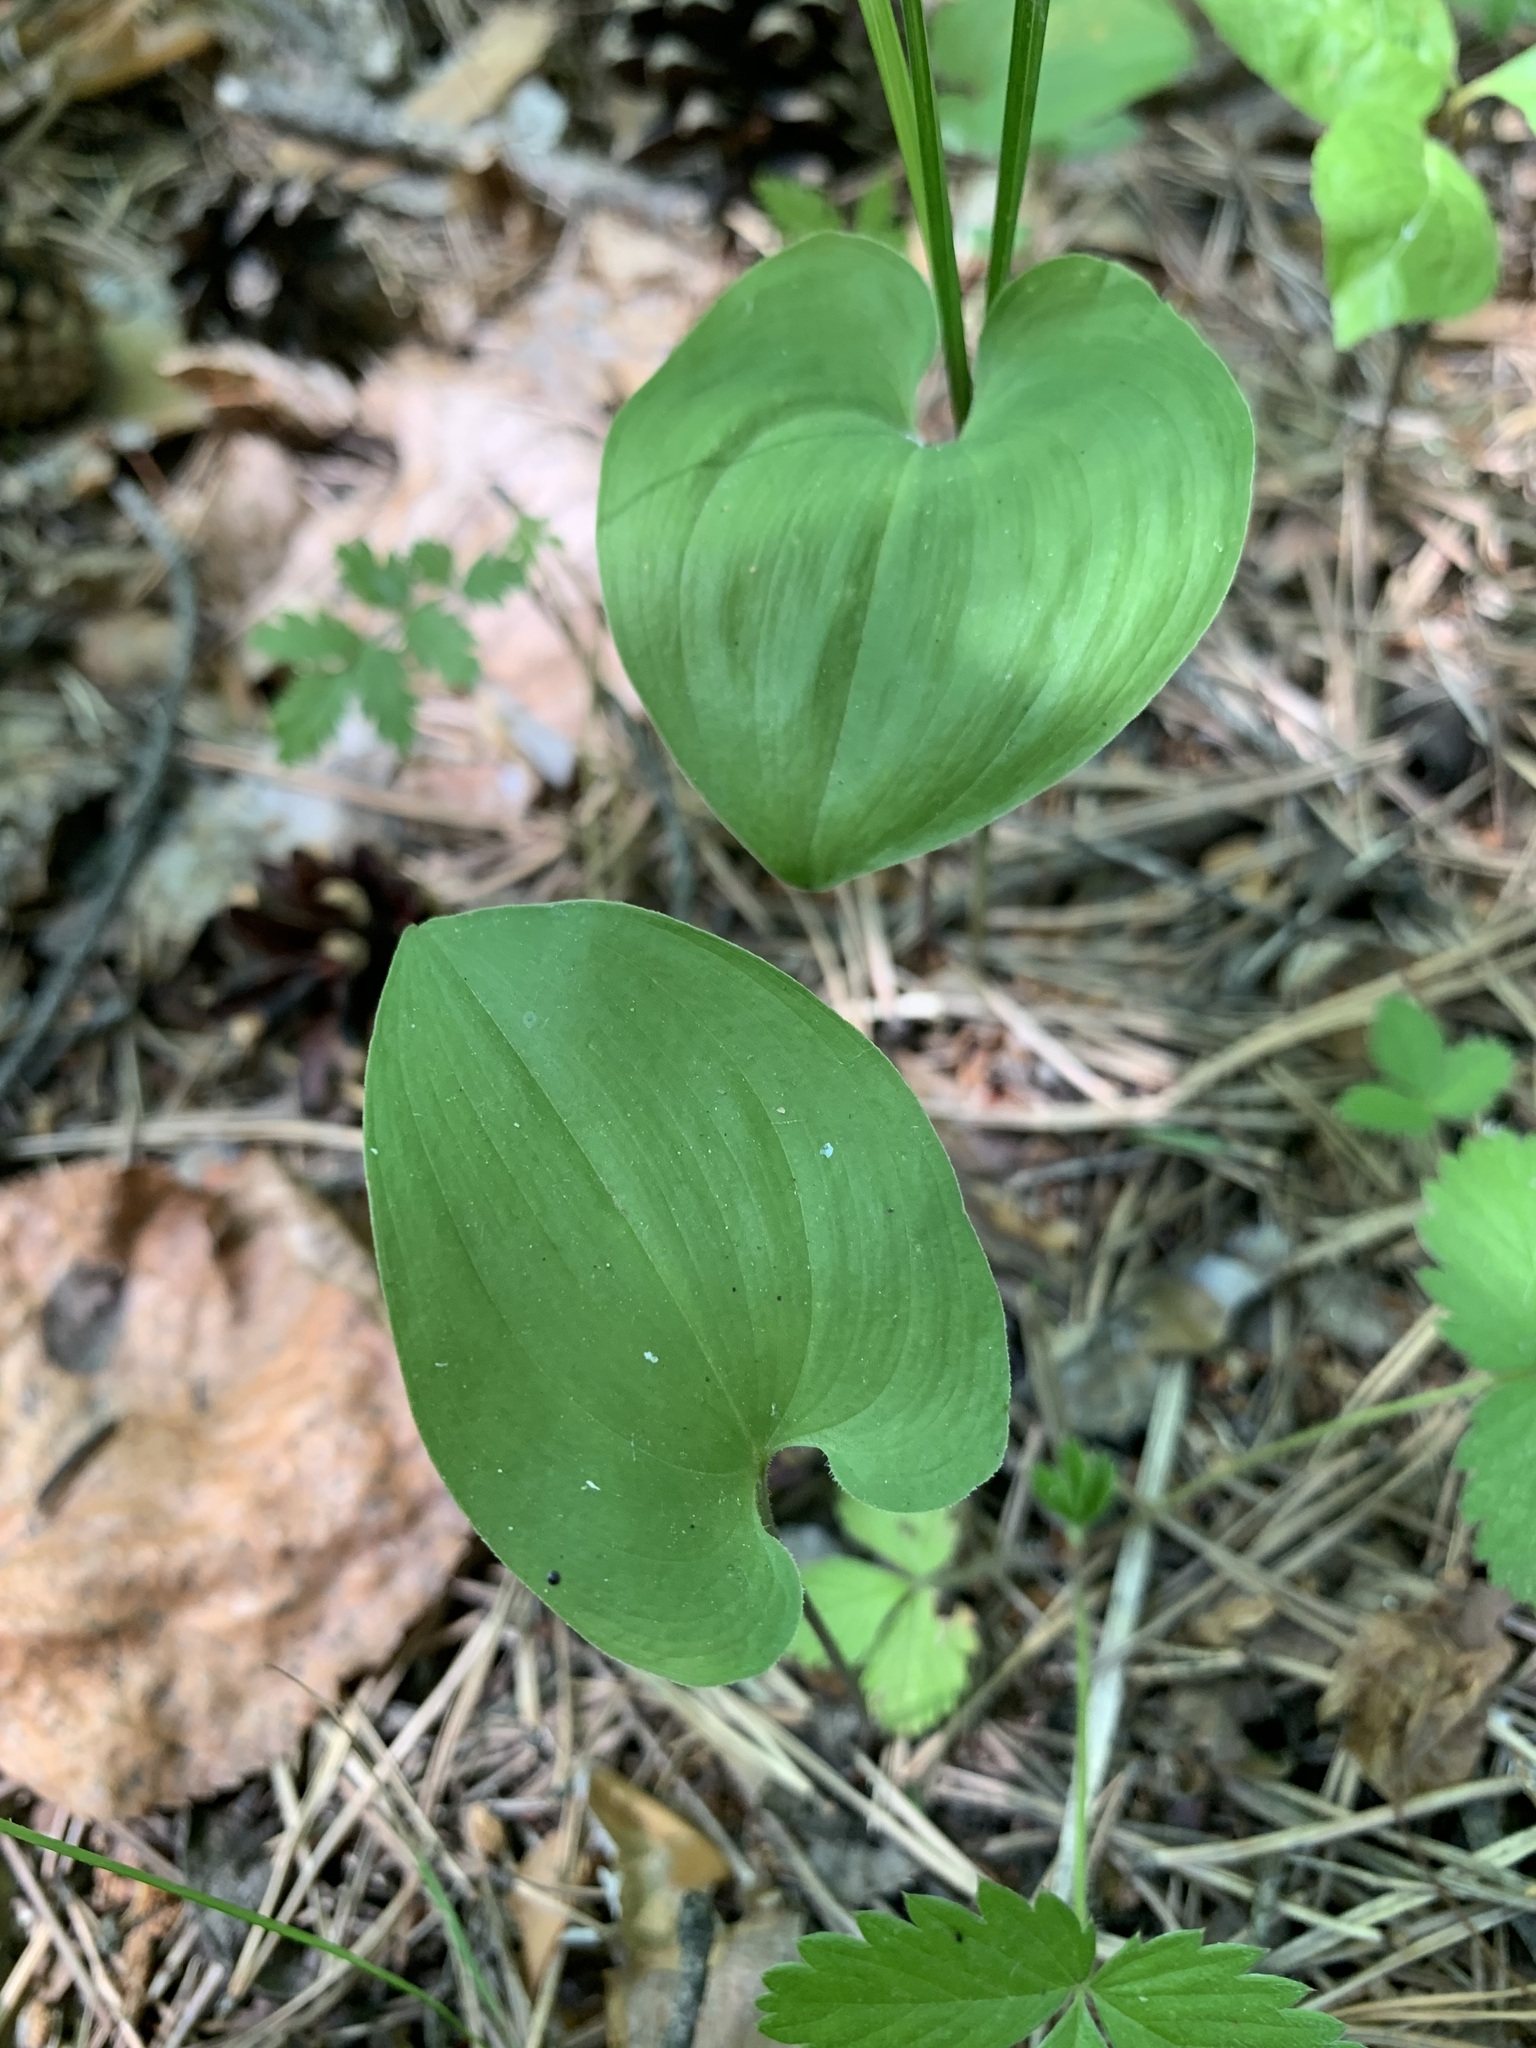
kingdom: Plantae
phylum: Tracheophyta
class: Liliopsida
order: Asparagales
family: Asparagaceae
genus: Maianthemum
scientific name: Maianthemum bifolium
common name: May lily
